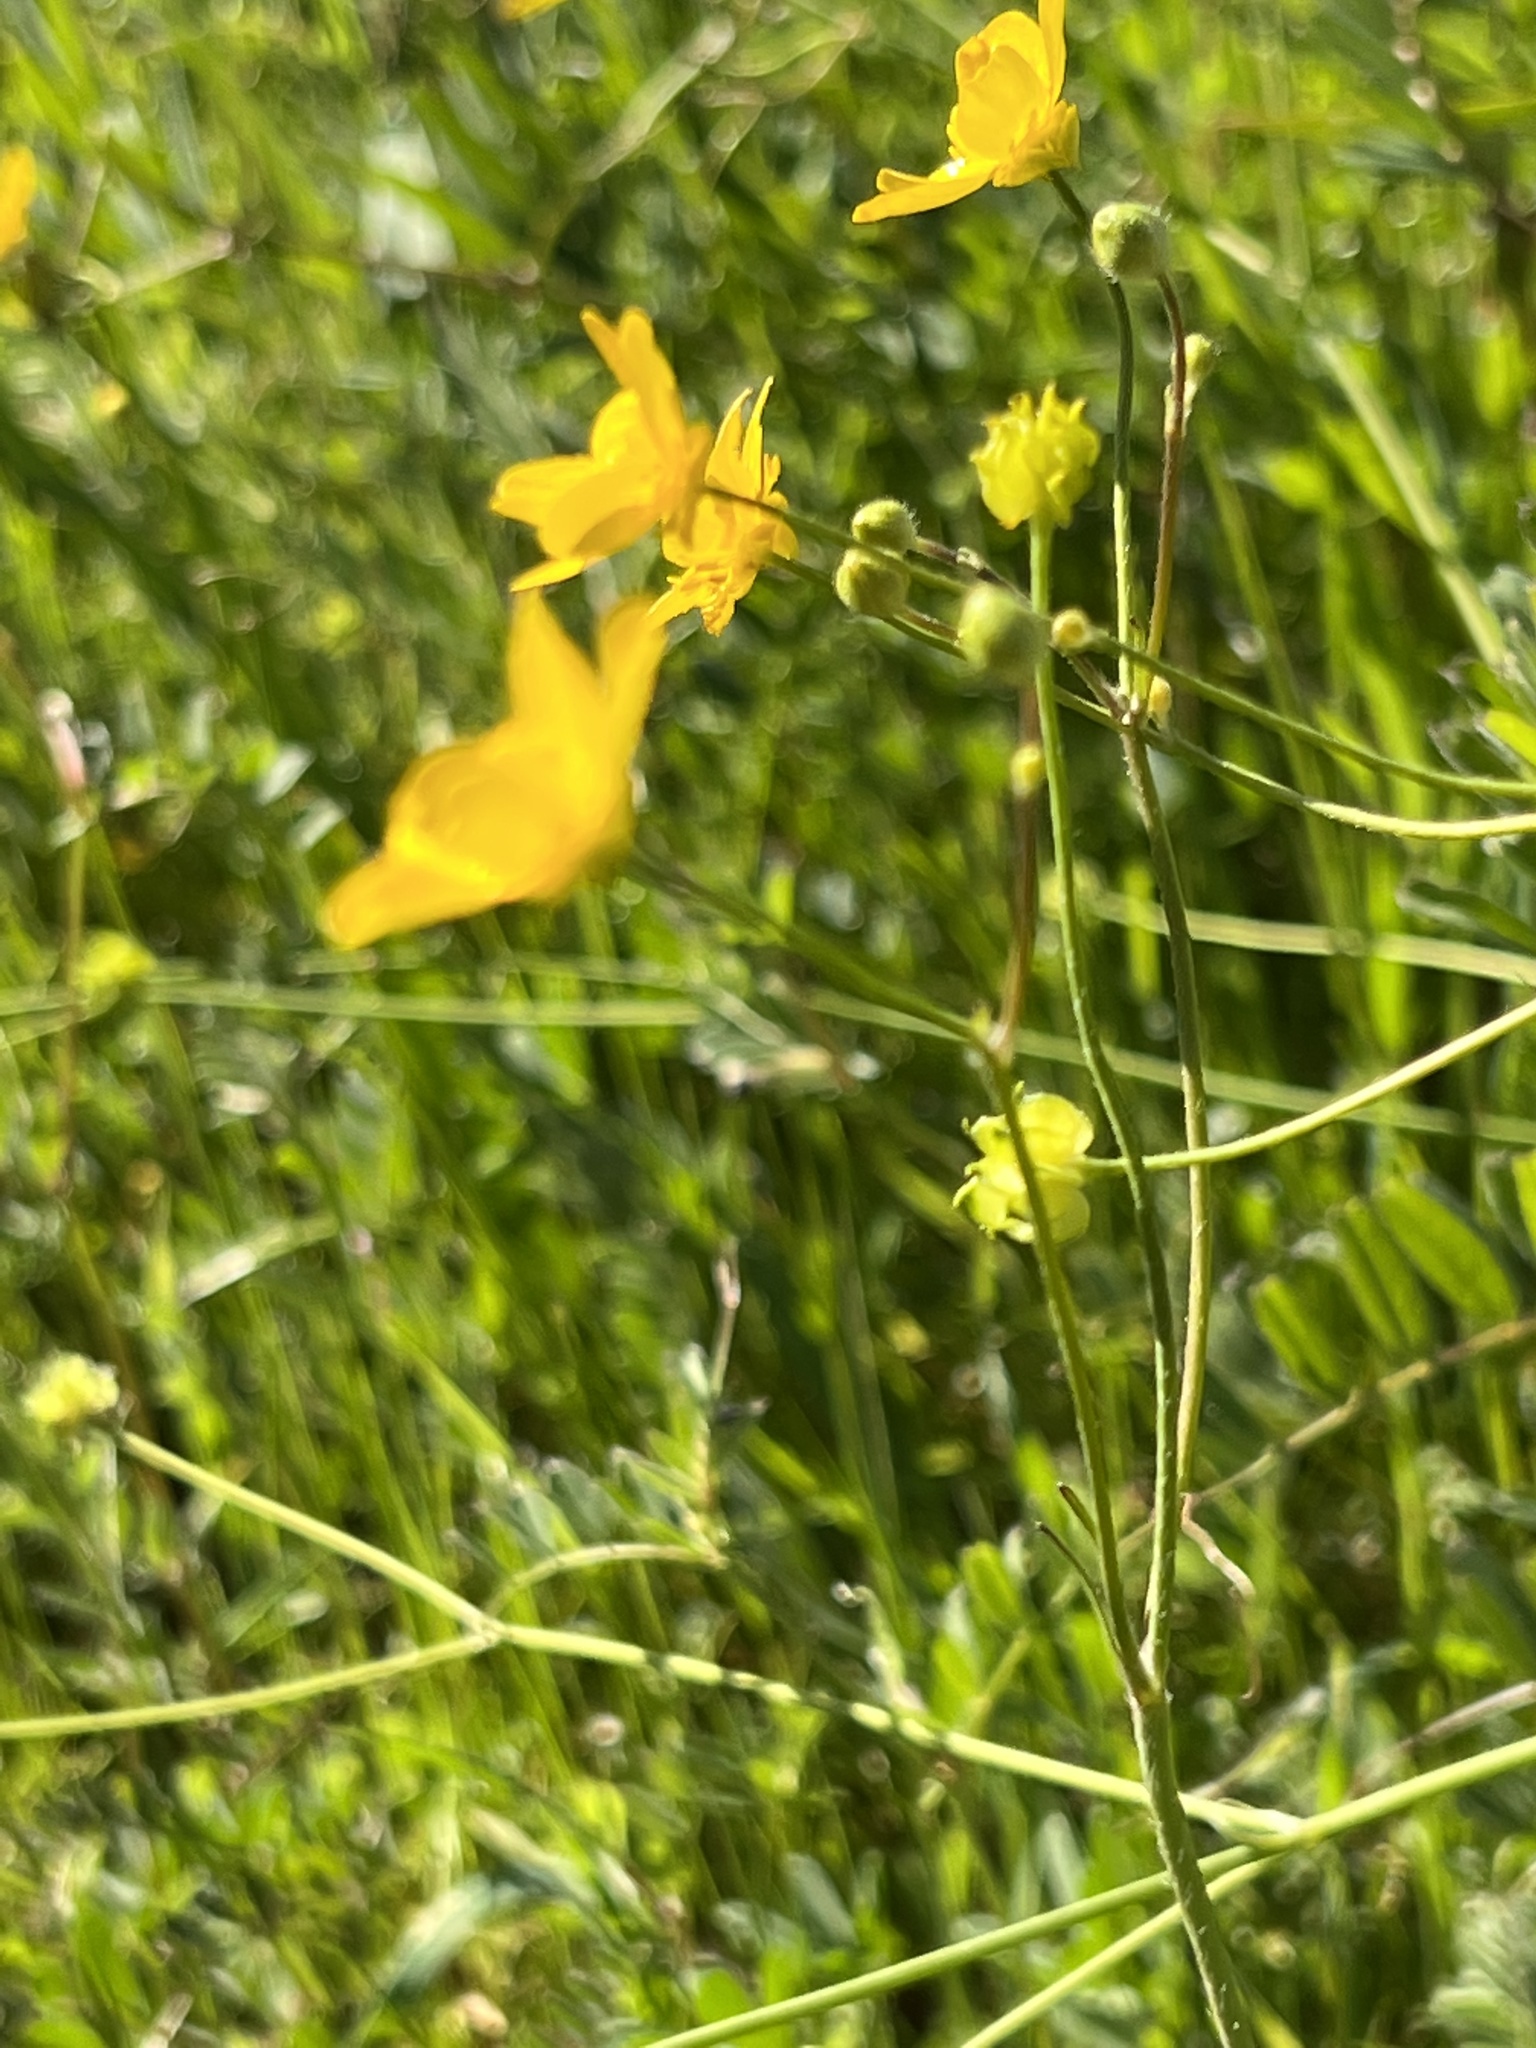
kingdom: Plantae
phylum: Tracheophyta
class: Magnoliopsida
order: Ranunculales
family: Ranunculaceae
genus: Ranunculus
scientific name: Ranunculus californicus
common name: California buttercup
